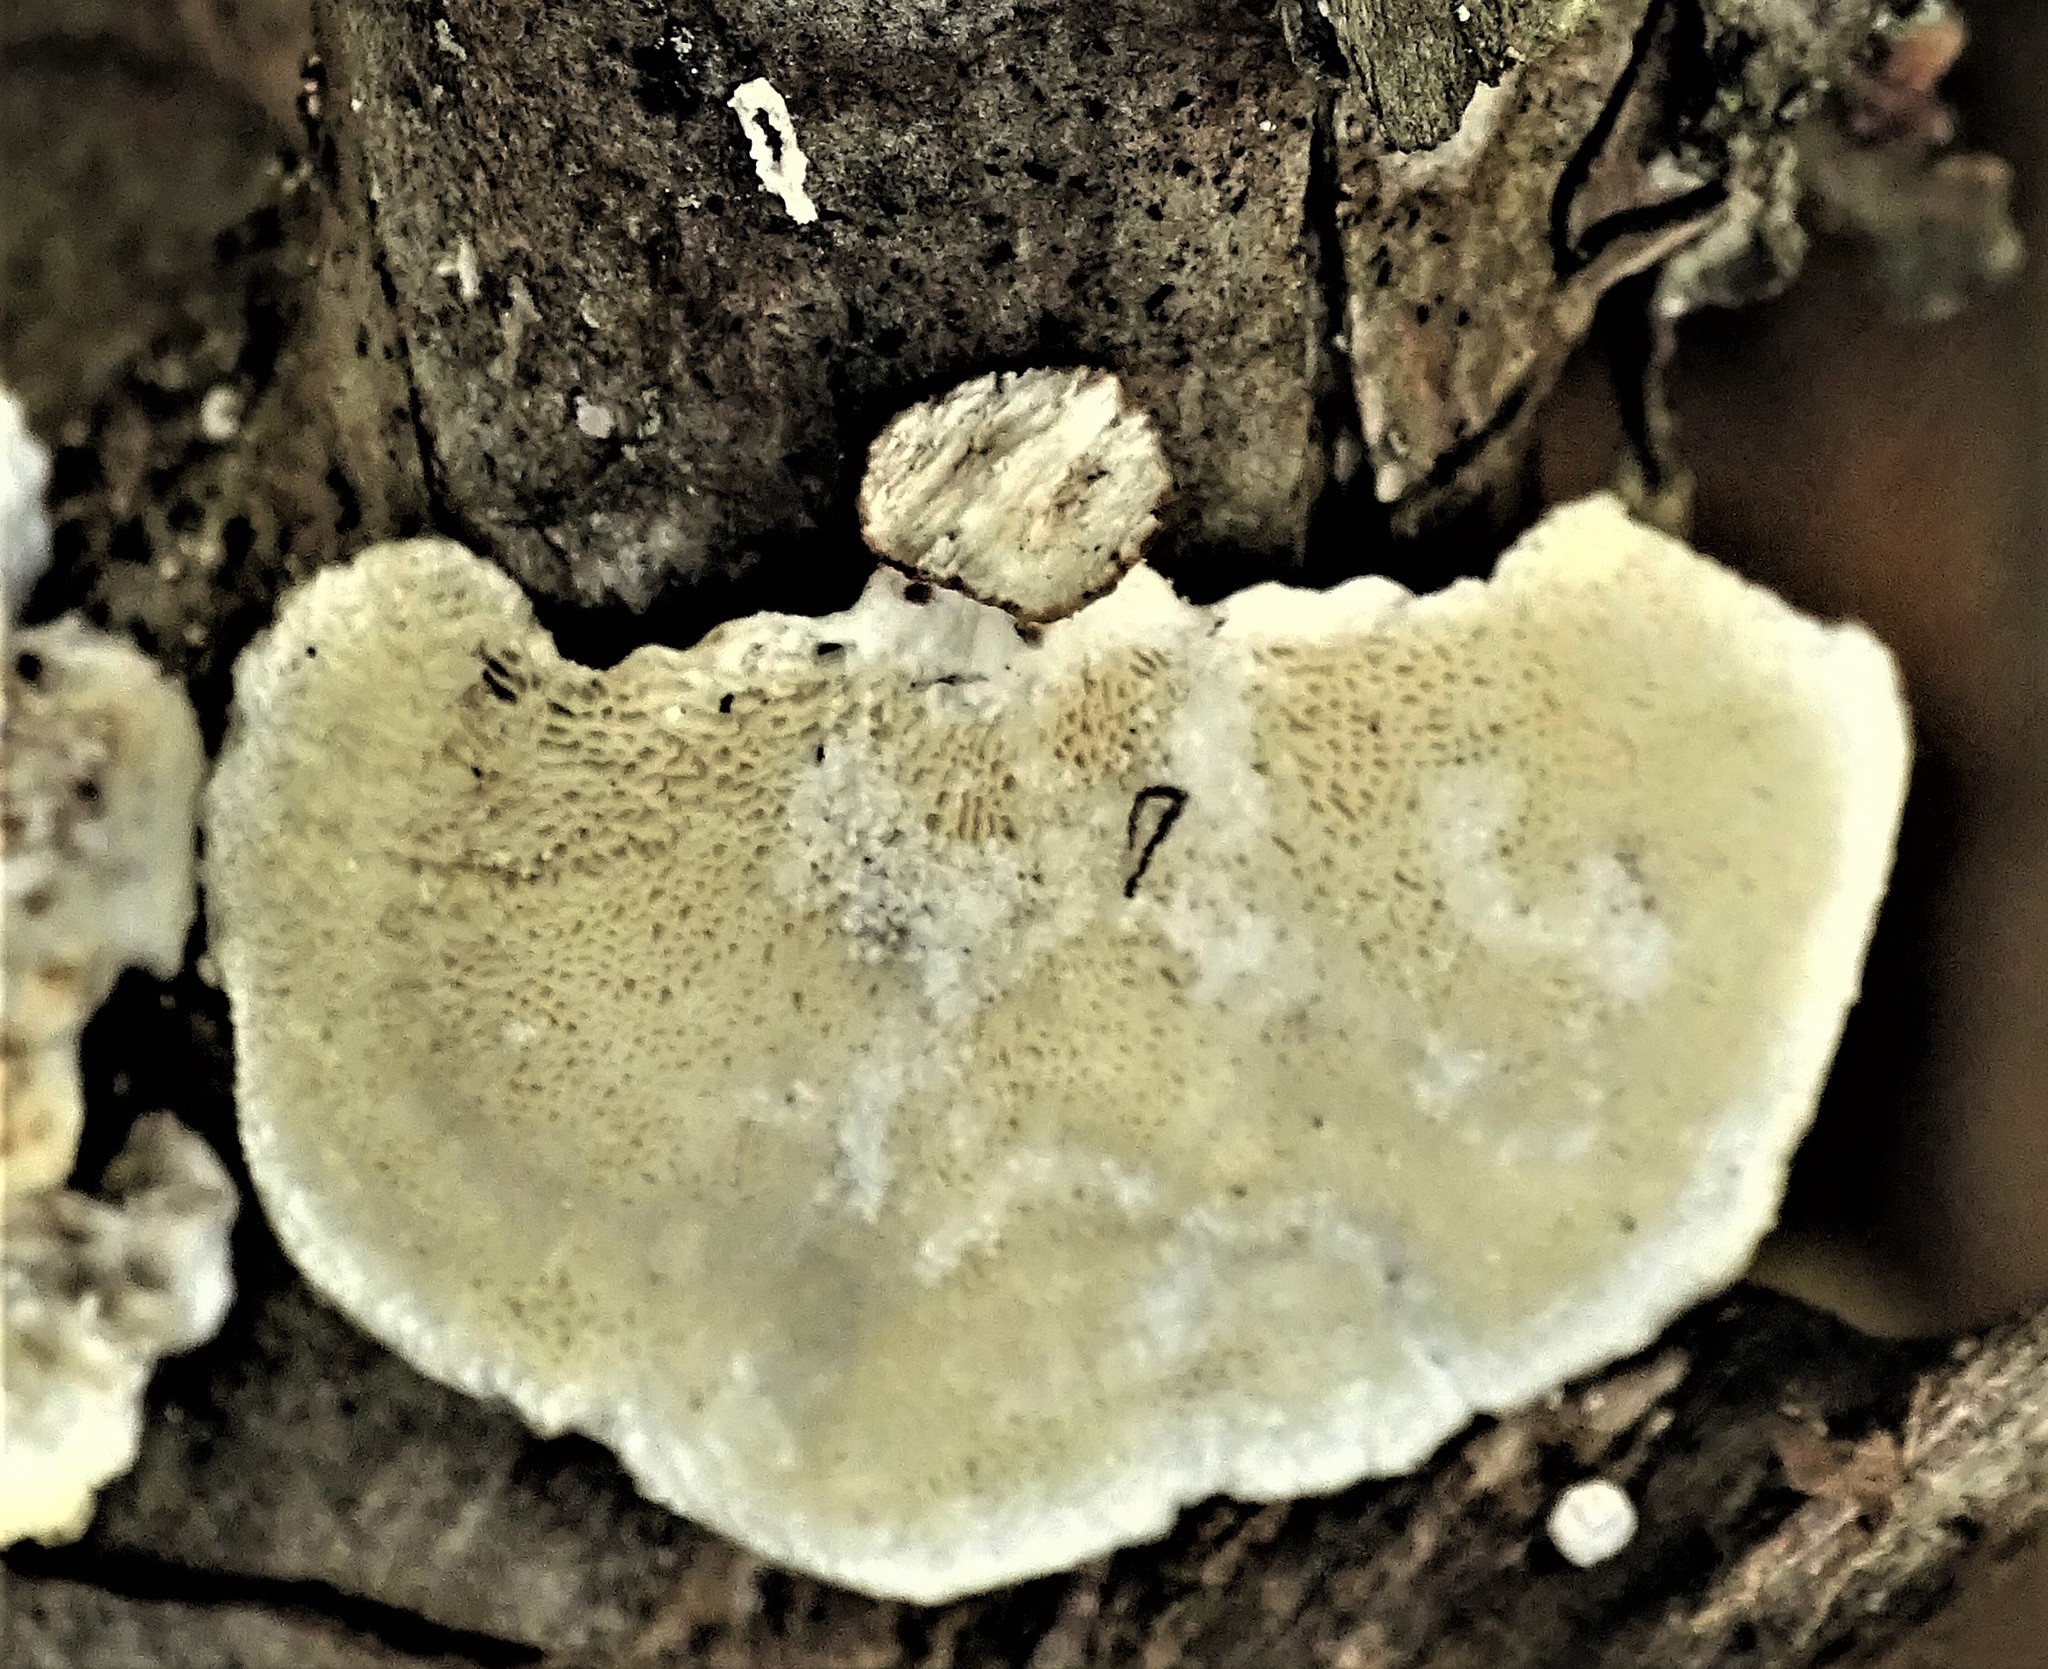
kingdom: Fungi
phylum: Basidiomycota
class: Agaricomycetes
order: Polyporales
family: Polyporaceae
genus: Poronidulus
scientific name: Poronidulus conchifer
